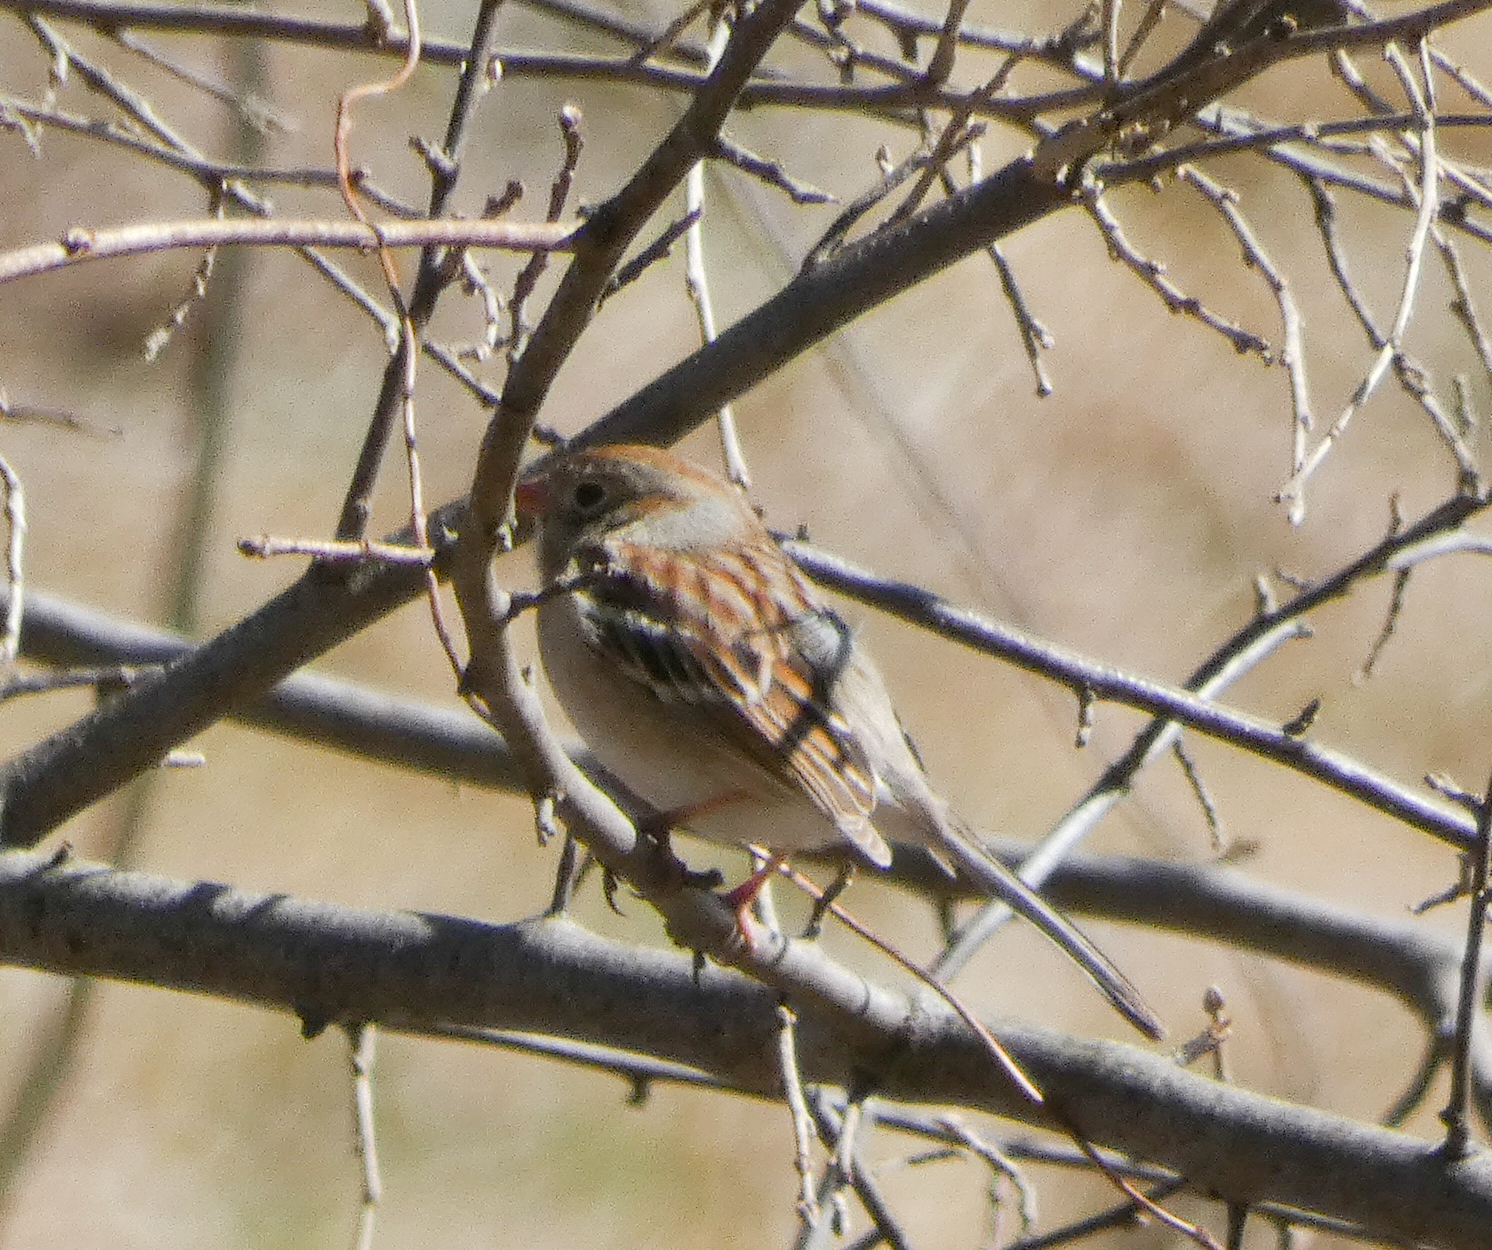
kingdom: Animalia
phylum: Chordata
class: Aves
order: Passeriformes
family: Passerellidae
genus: Spizella
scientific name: Spizella pusilla
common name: Field sparrow
